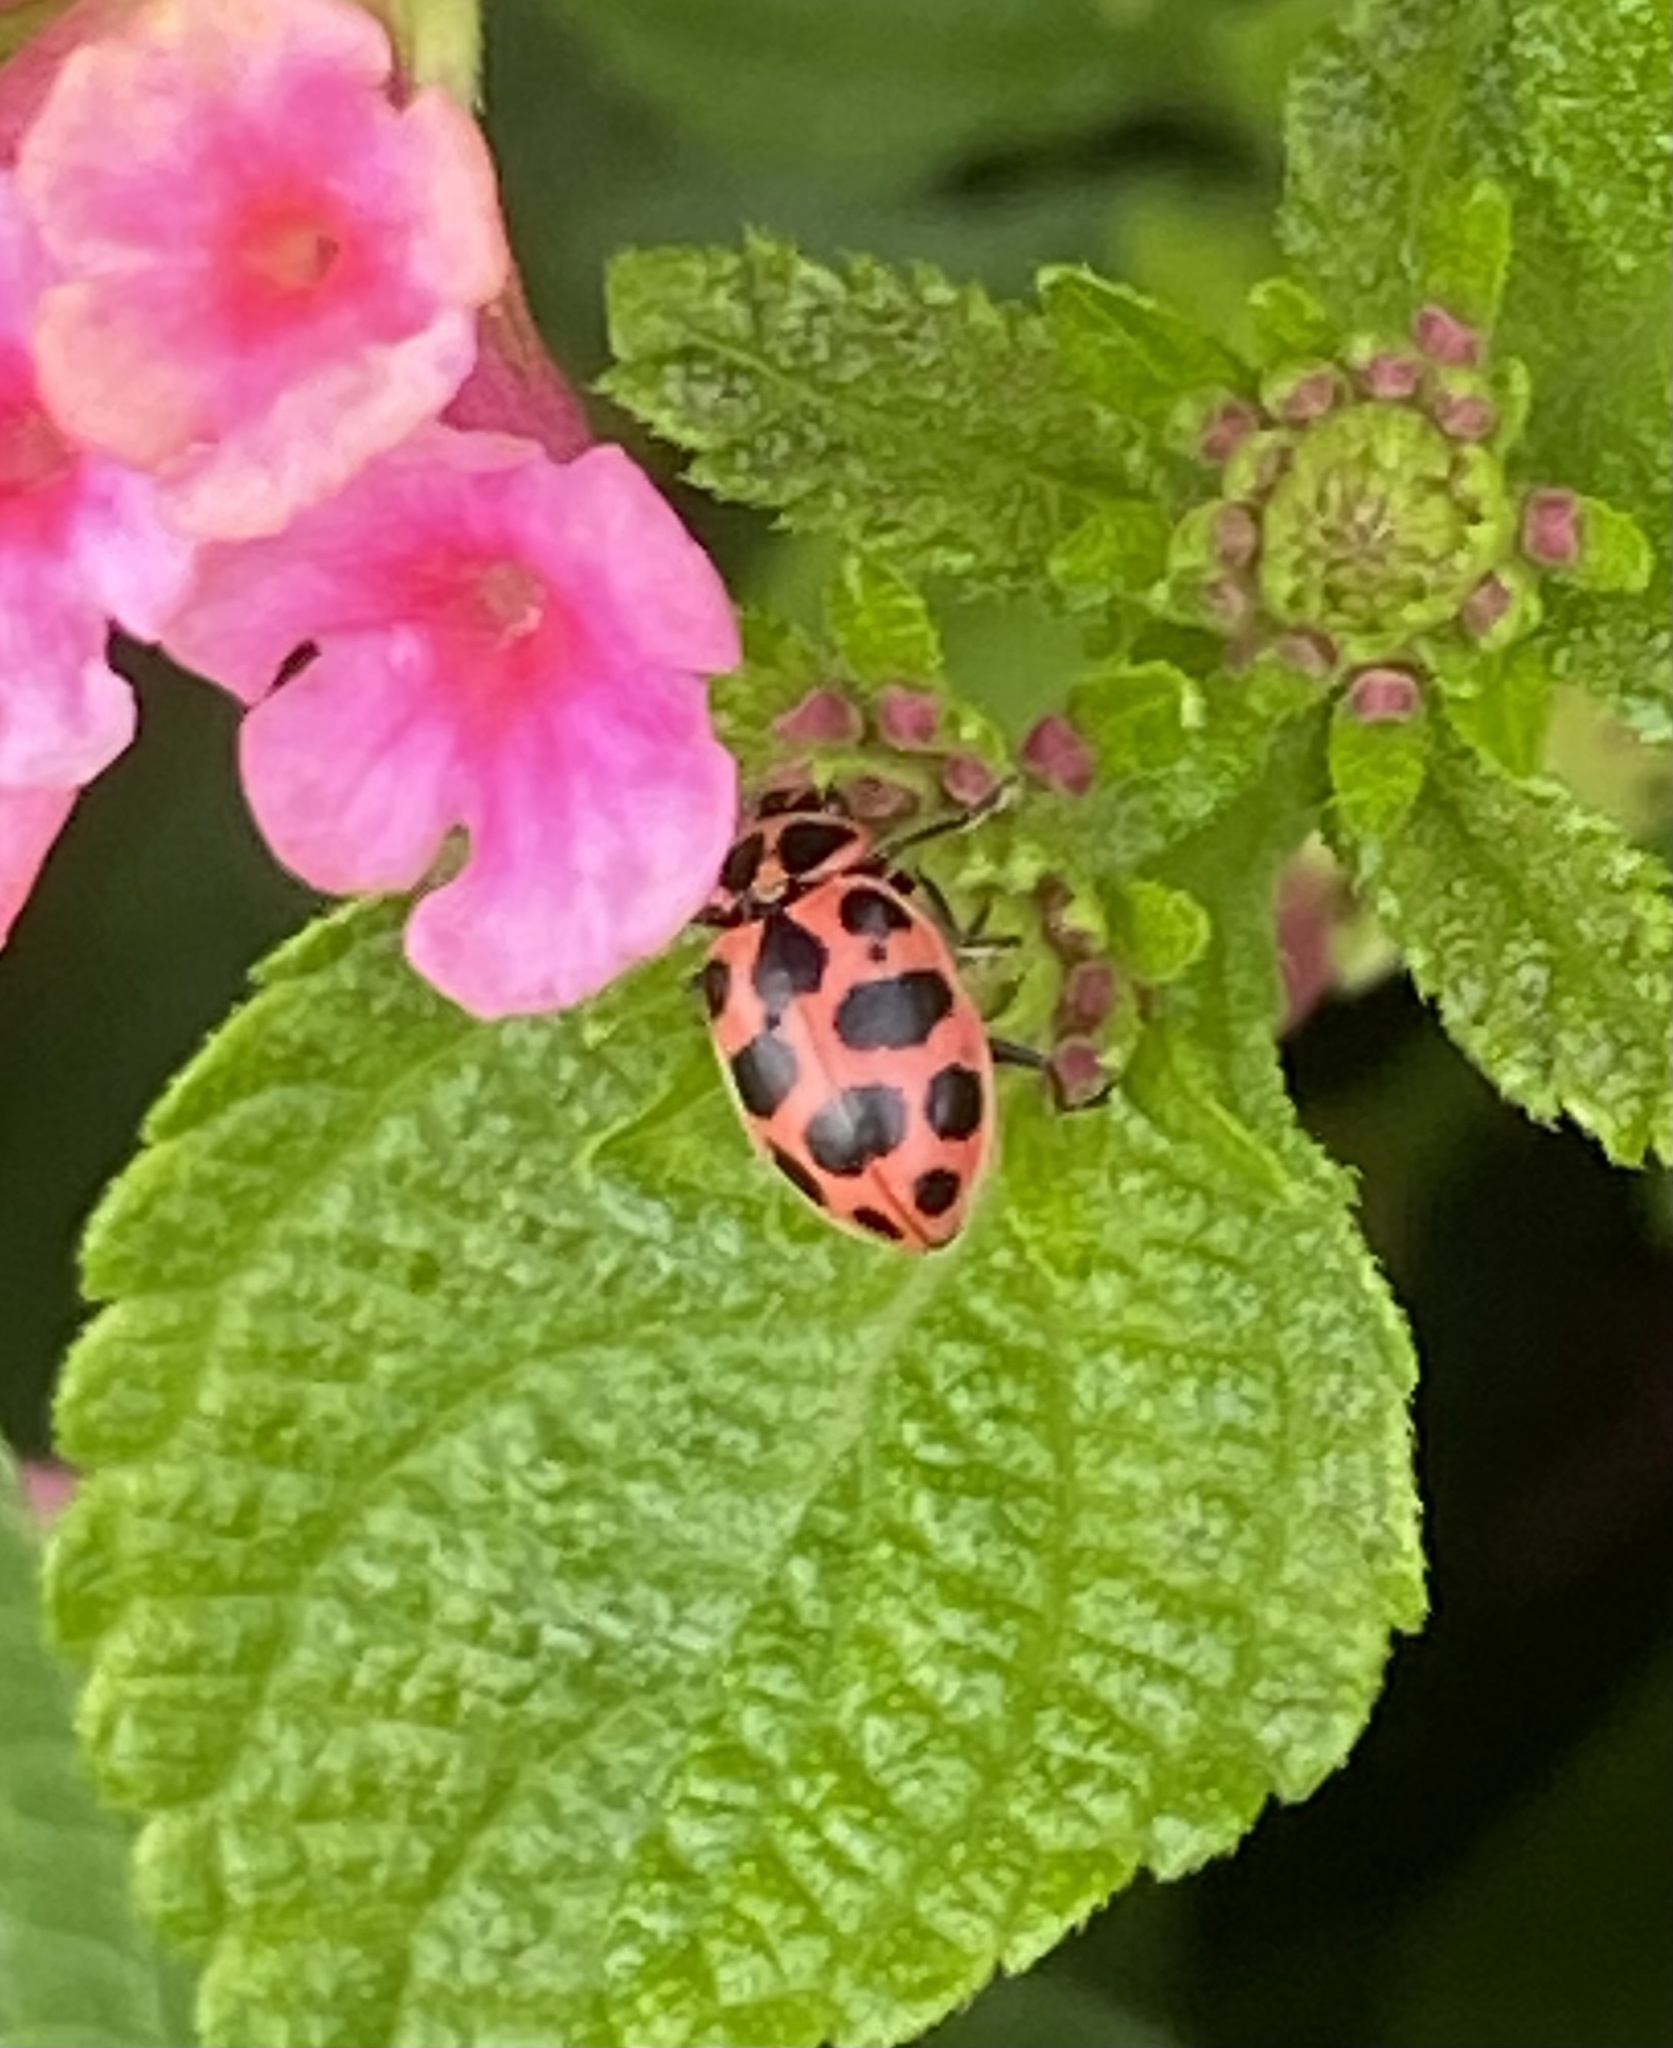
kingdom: Animalia
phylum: Arthropoda
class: Insecta
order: Coleoptera
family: Coccinellidae
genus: Coleomegilla
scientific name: Coleomegilla maculata
